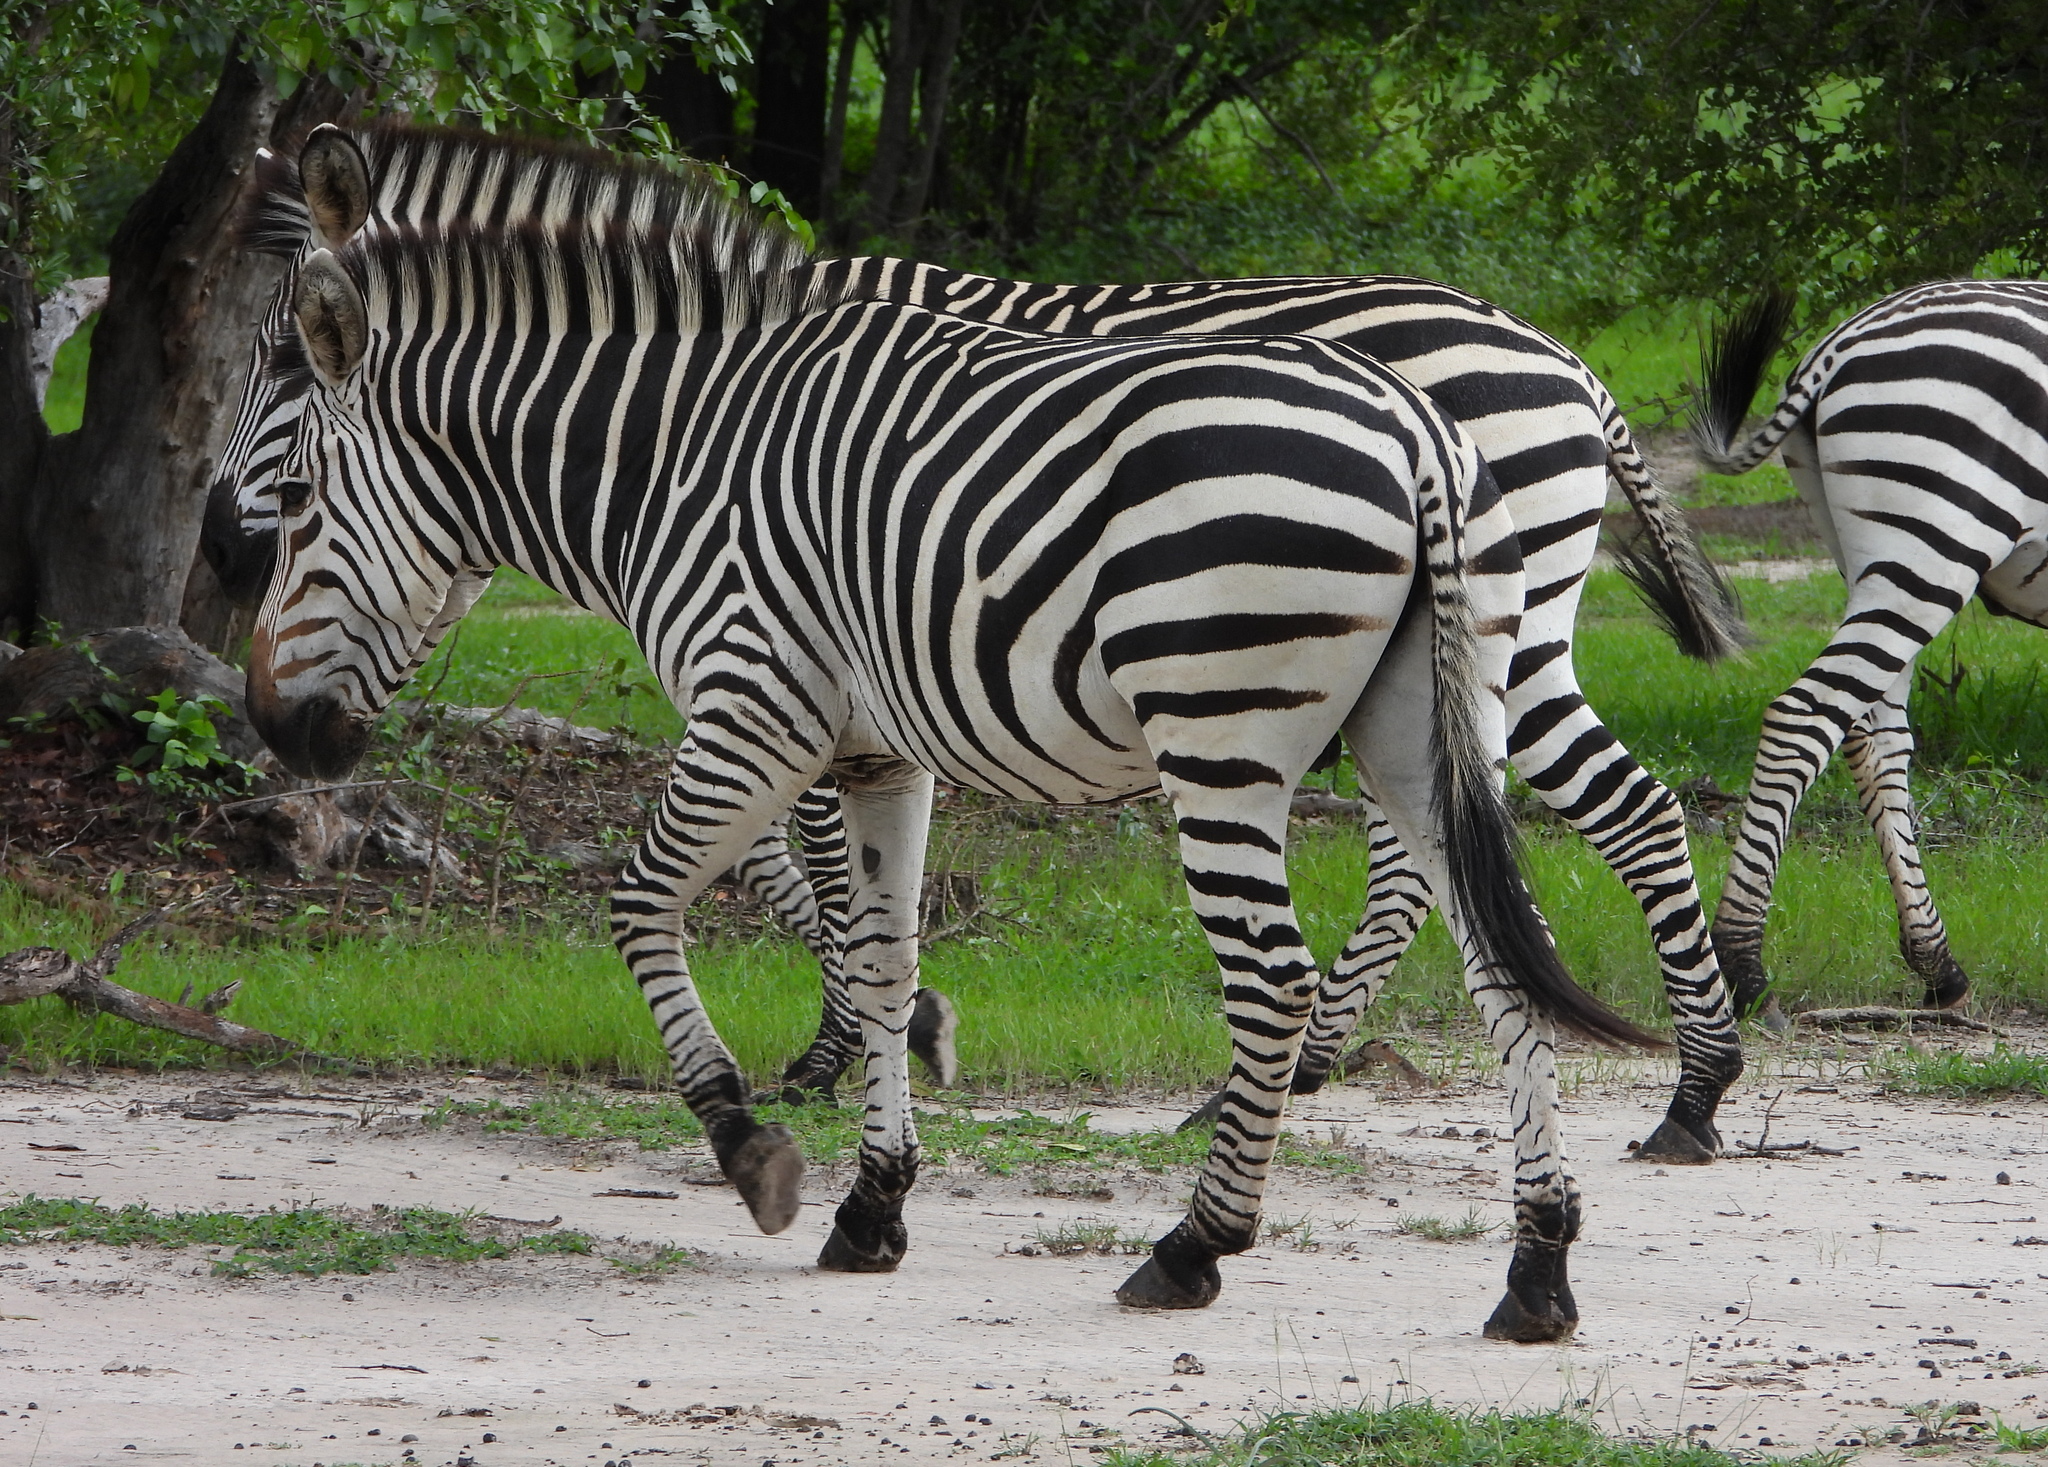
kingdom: Animalia
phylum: Chordata
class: Mammalia
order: Perissodactyla
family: Equidae
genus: Equus
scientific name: Equus quagga
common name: Plains zebra
